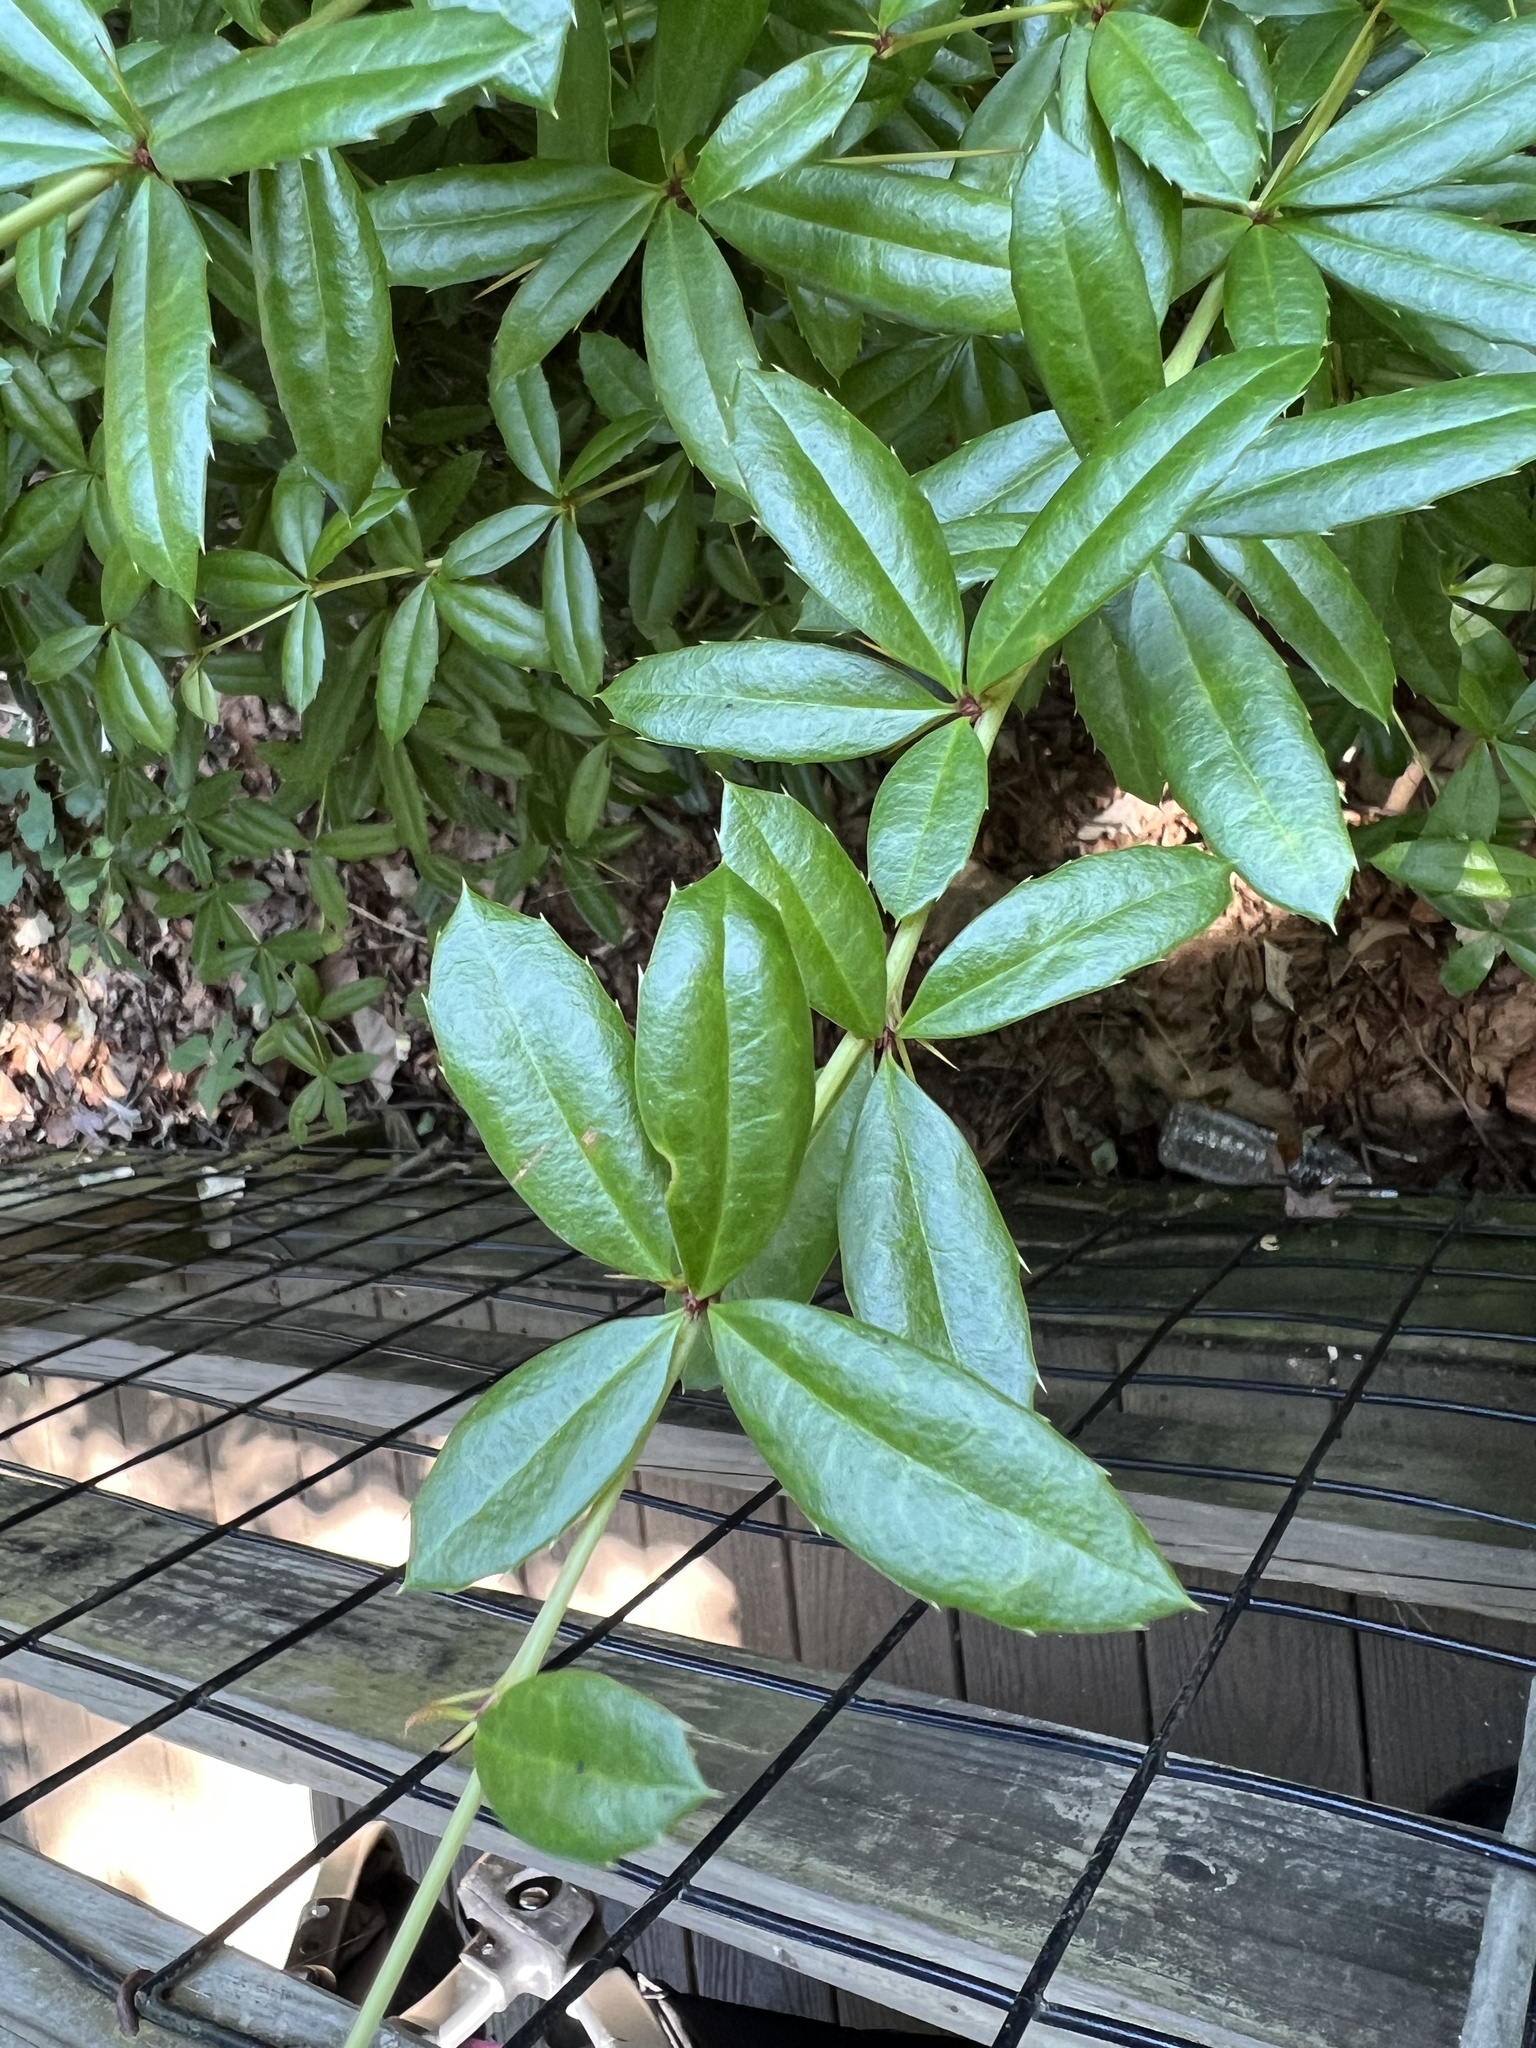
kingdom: Plantae
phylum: Tracheophyta
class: Magnoliopsida
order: Ranunculales
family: Berberidaceae
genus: Berberis
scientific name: Berberis julianae
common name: Wintergreen barberry
